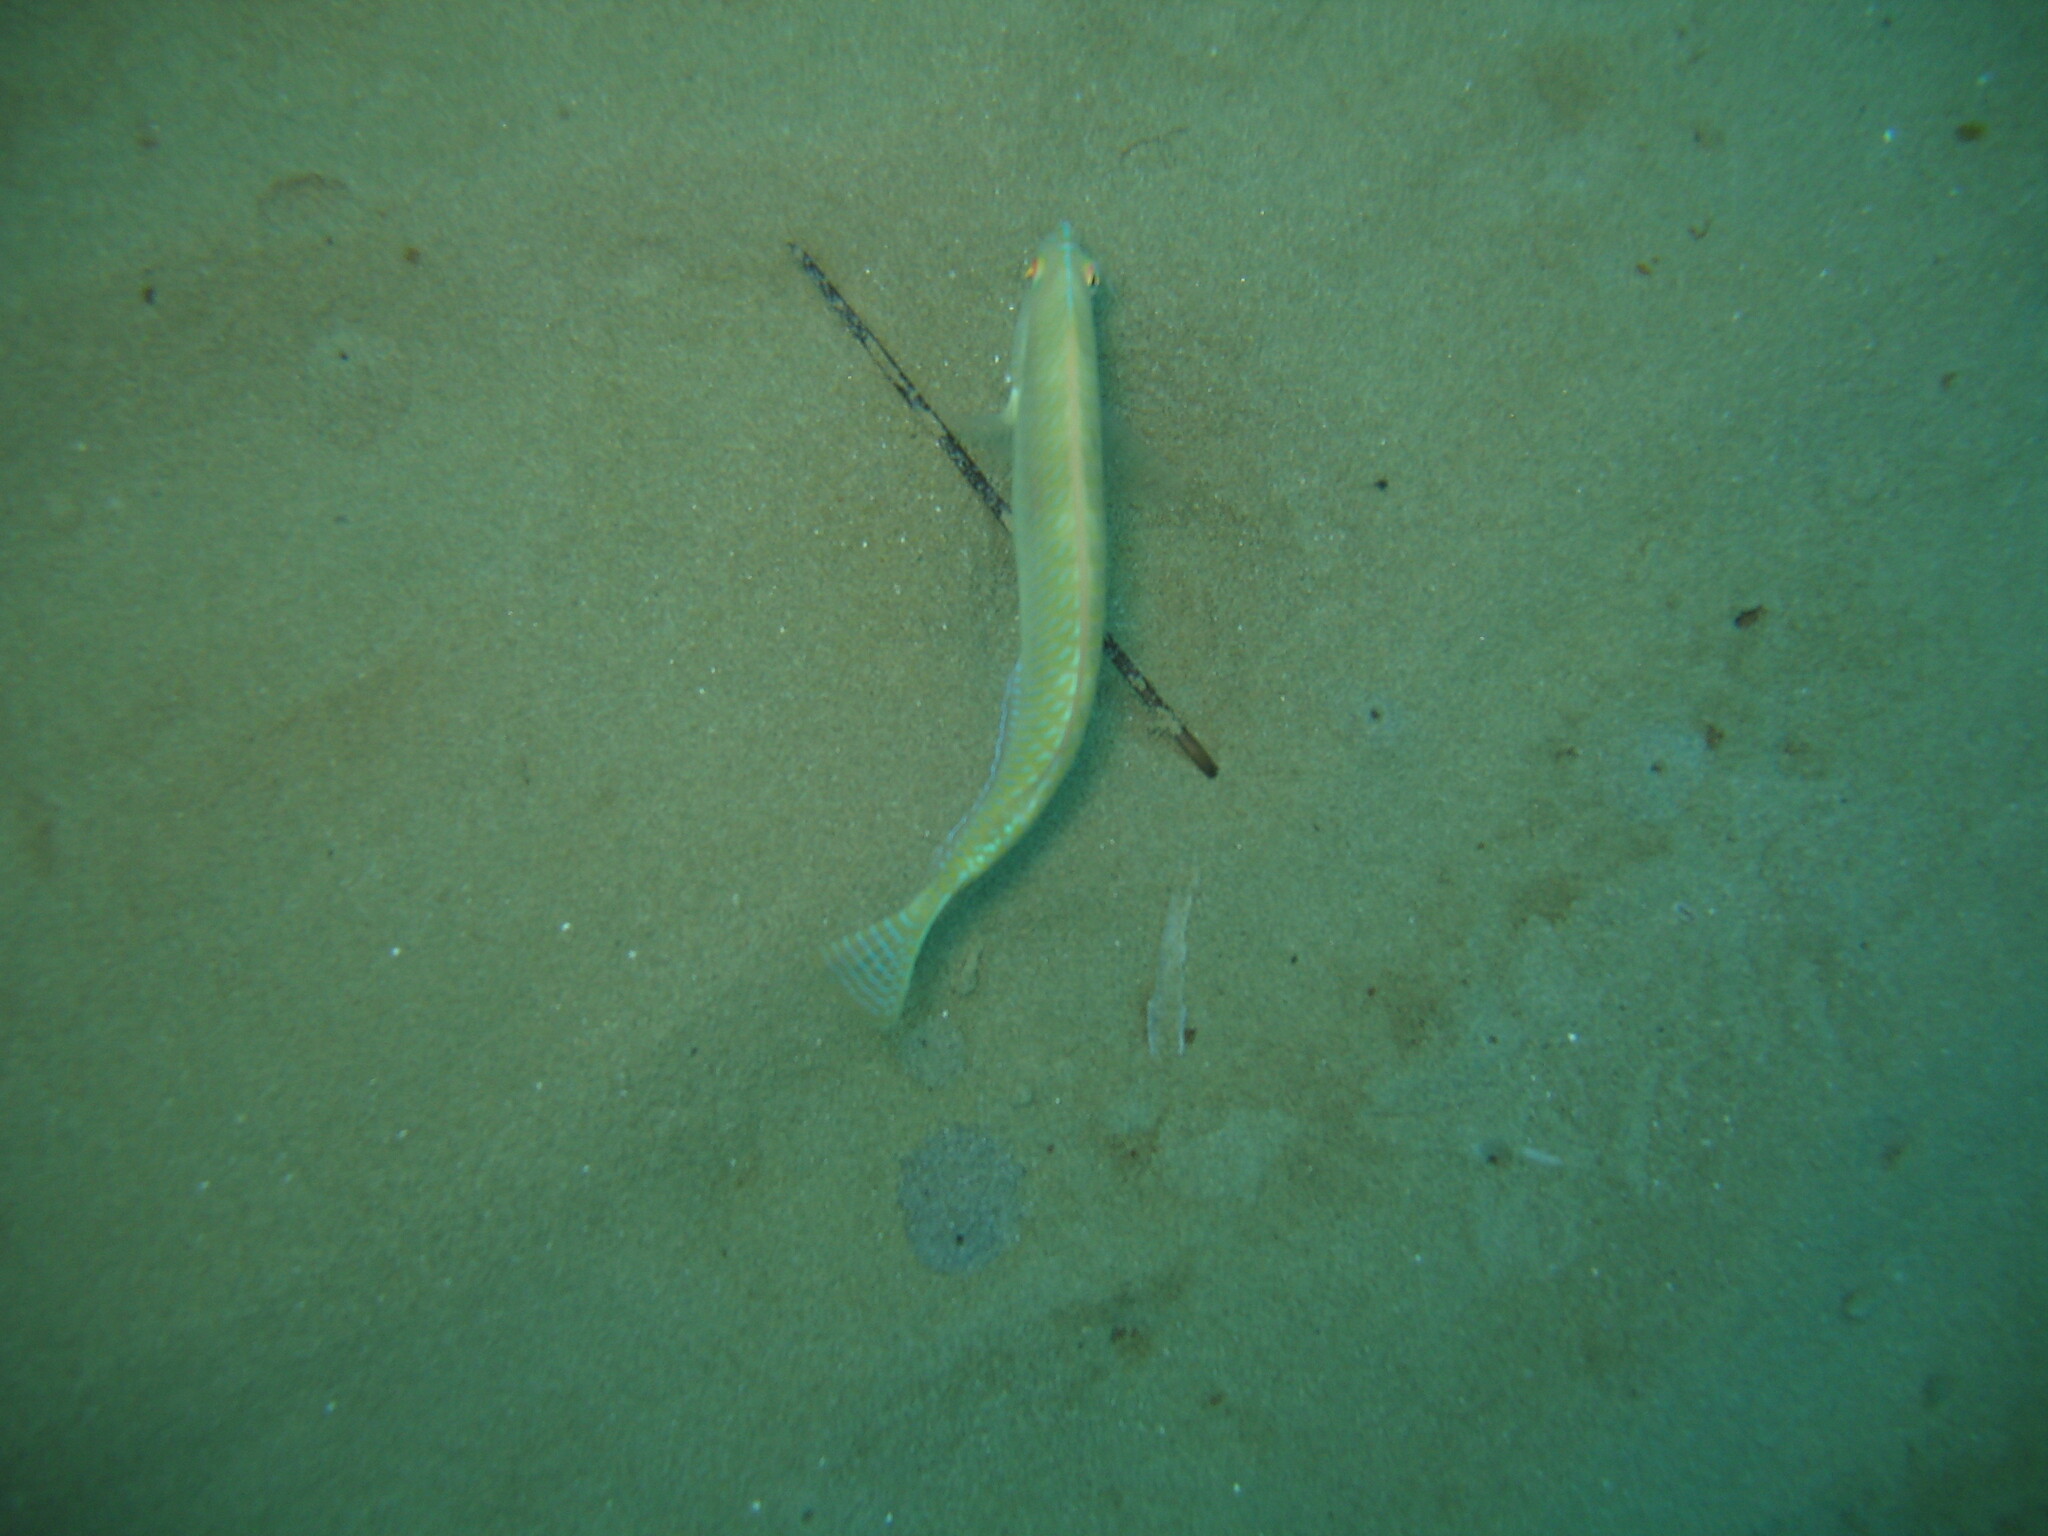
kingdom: Animalia
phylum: Chordata
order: Perciformes
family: Labridae
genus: Xyrichtys
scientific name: Xyrichtys novacula
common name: Pearly razorfish
